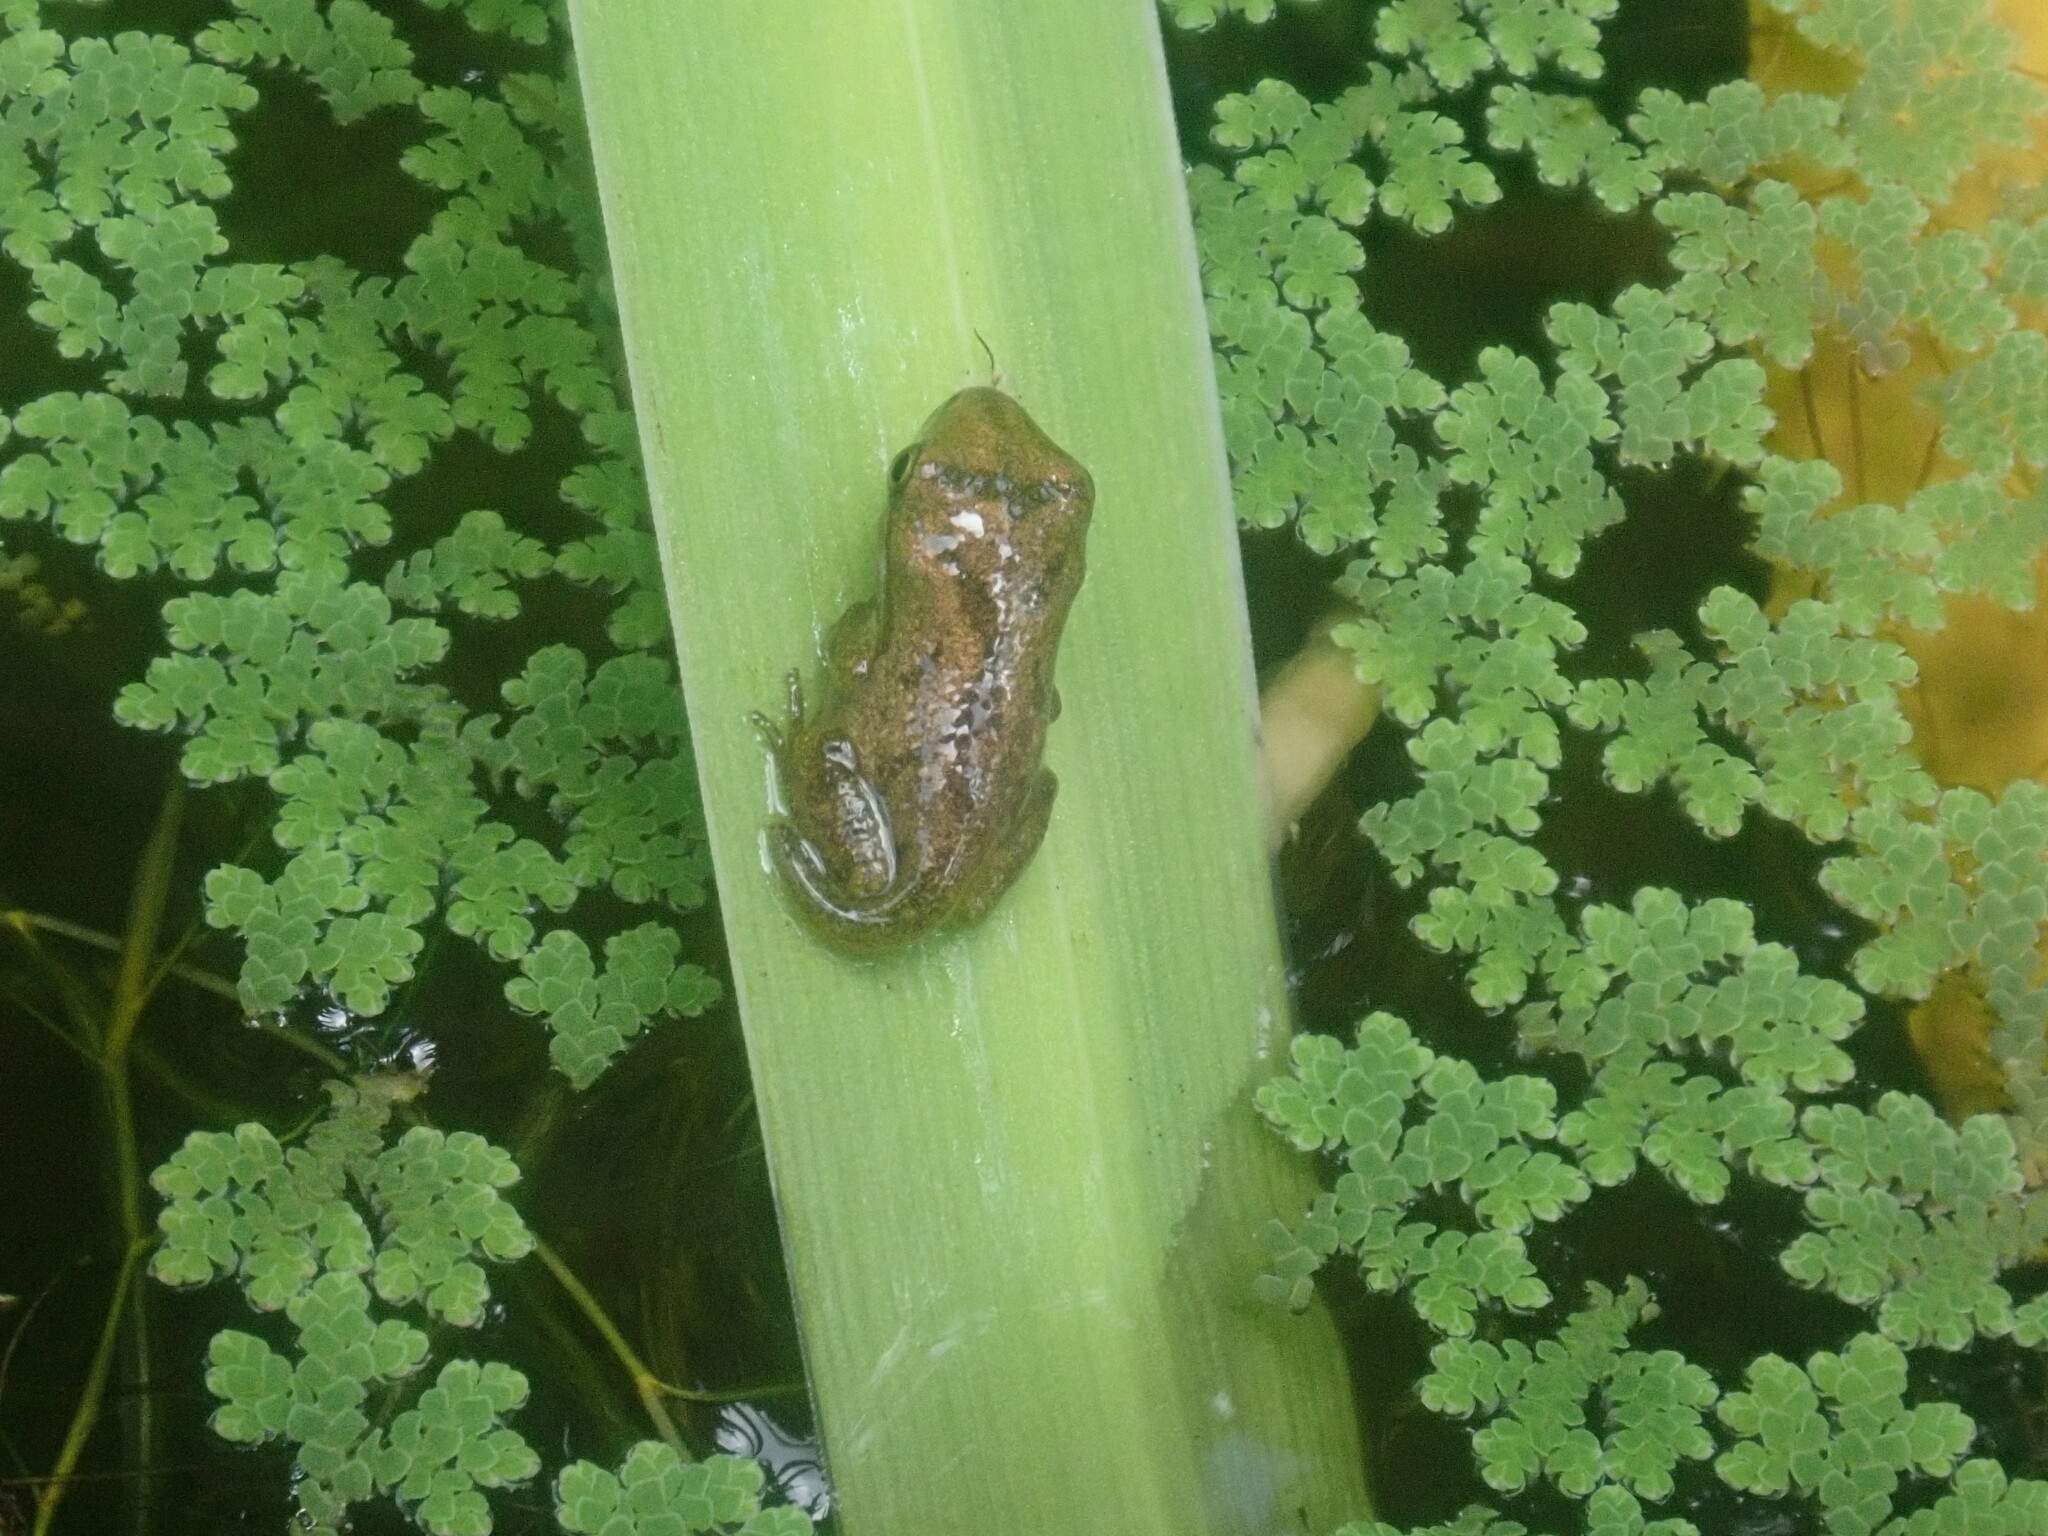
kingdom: Animalia
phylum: Chordata
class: Amphibia
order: Anura
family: Hylidae
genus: Pseudacris
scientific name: Pseudacris crucifer
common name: Spring peeper
